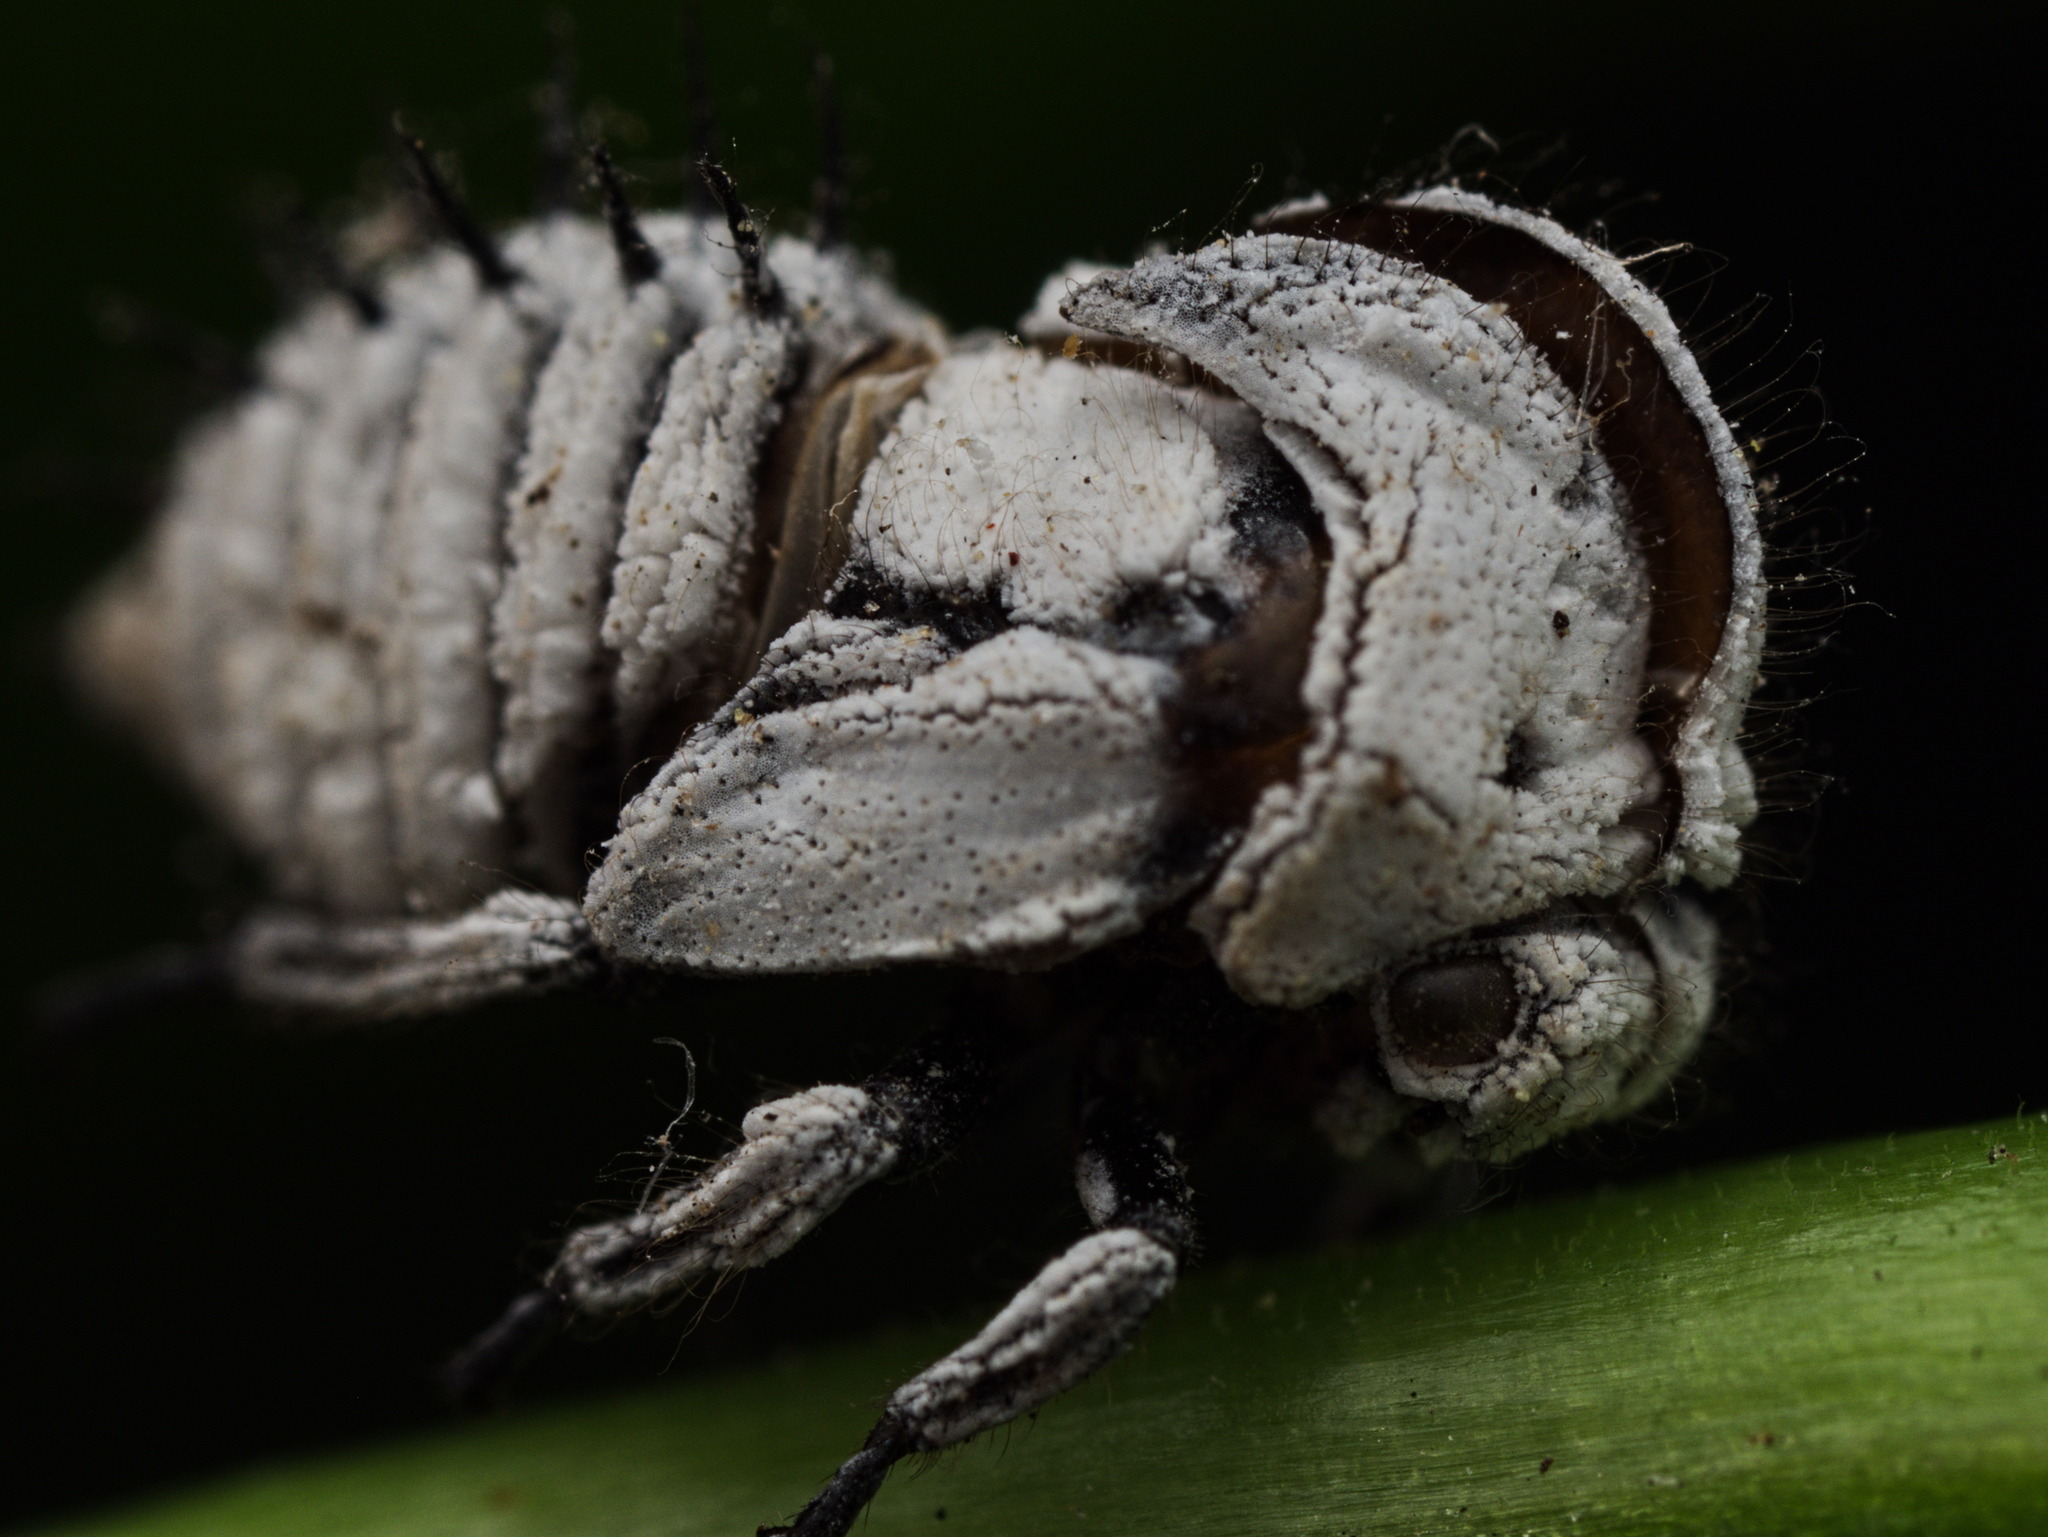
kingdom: Animalia
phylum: Arthropoda
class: Insecta
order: Hemiptera
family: Membracidae
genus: Membracis
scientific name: Membracis mexicana
